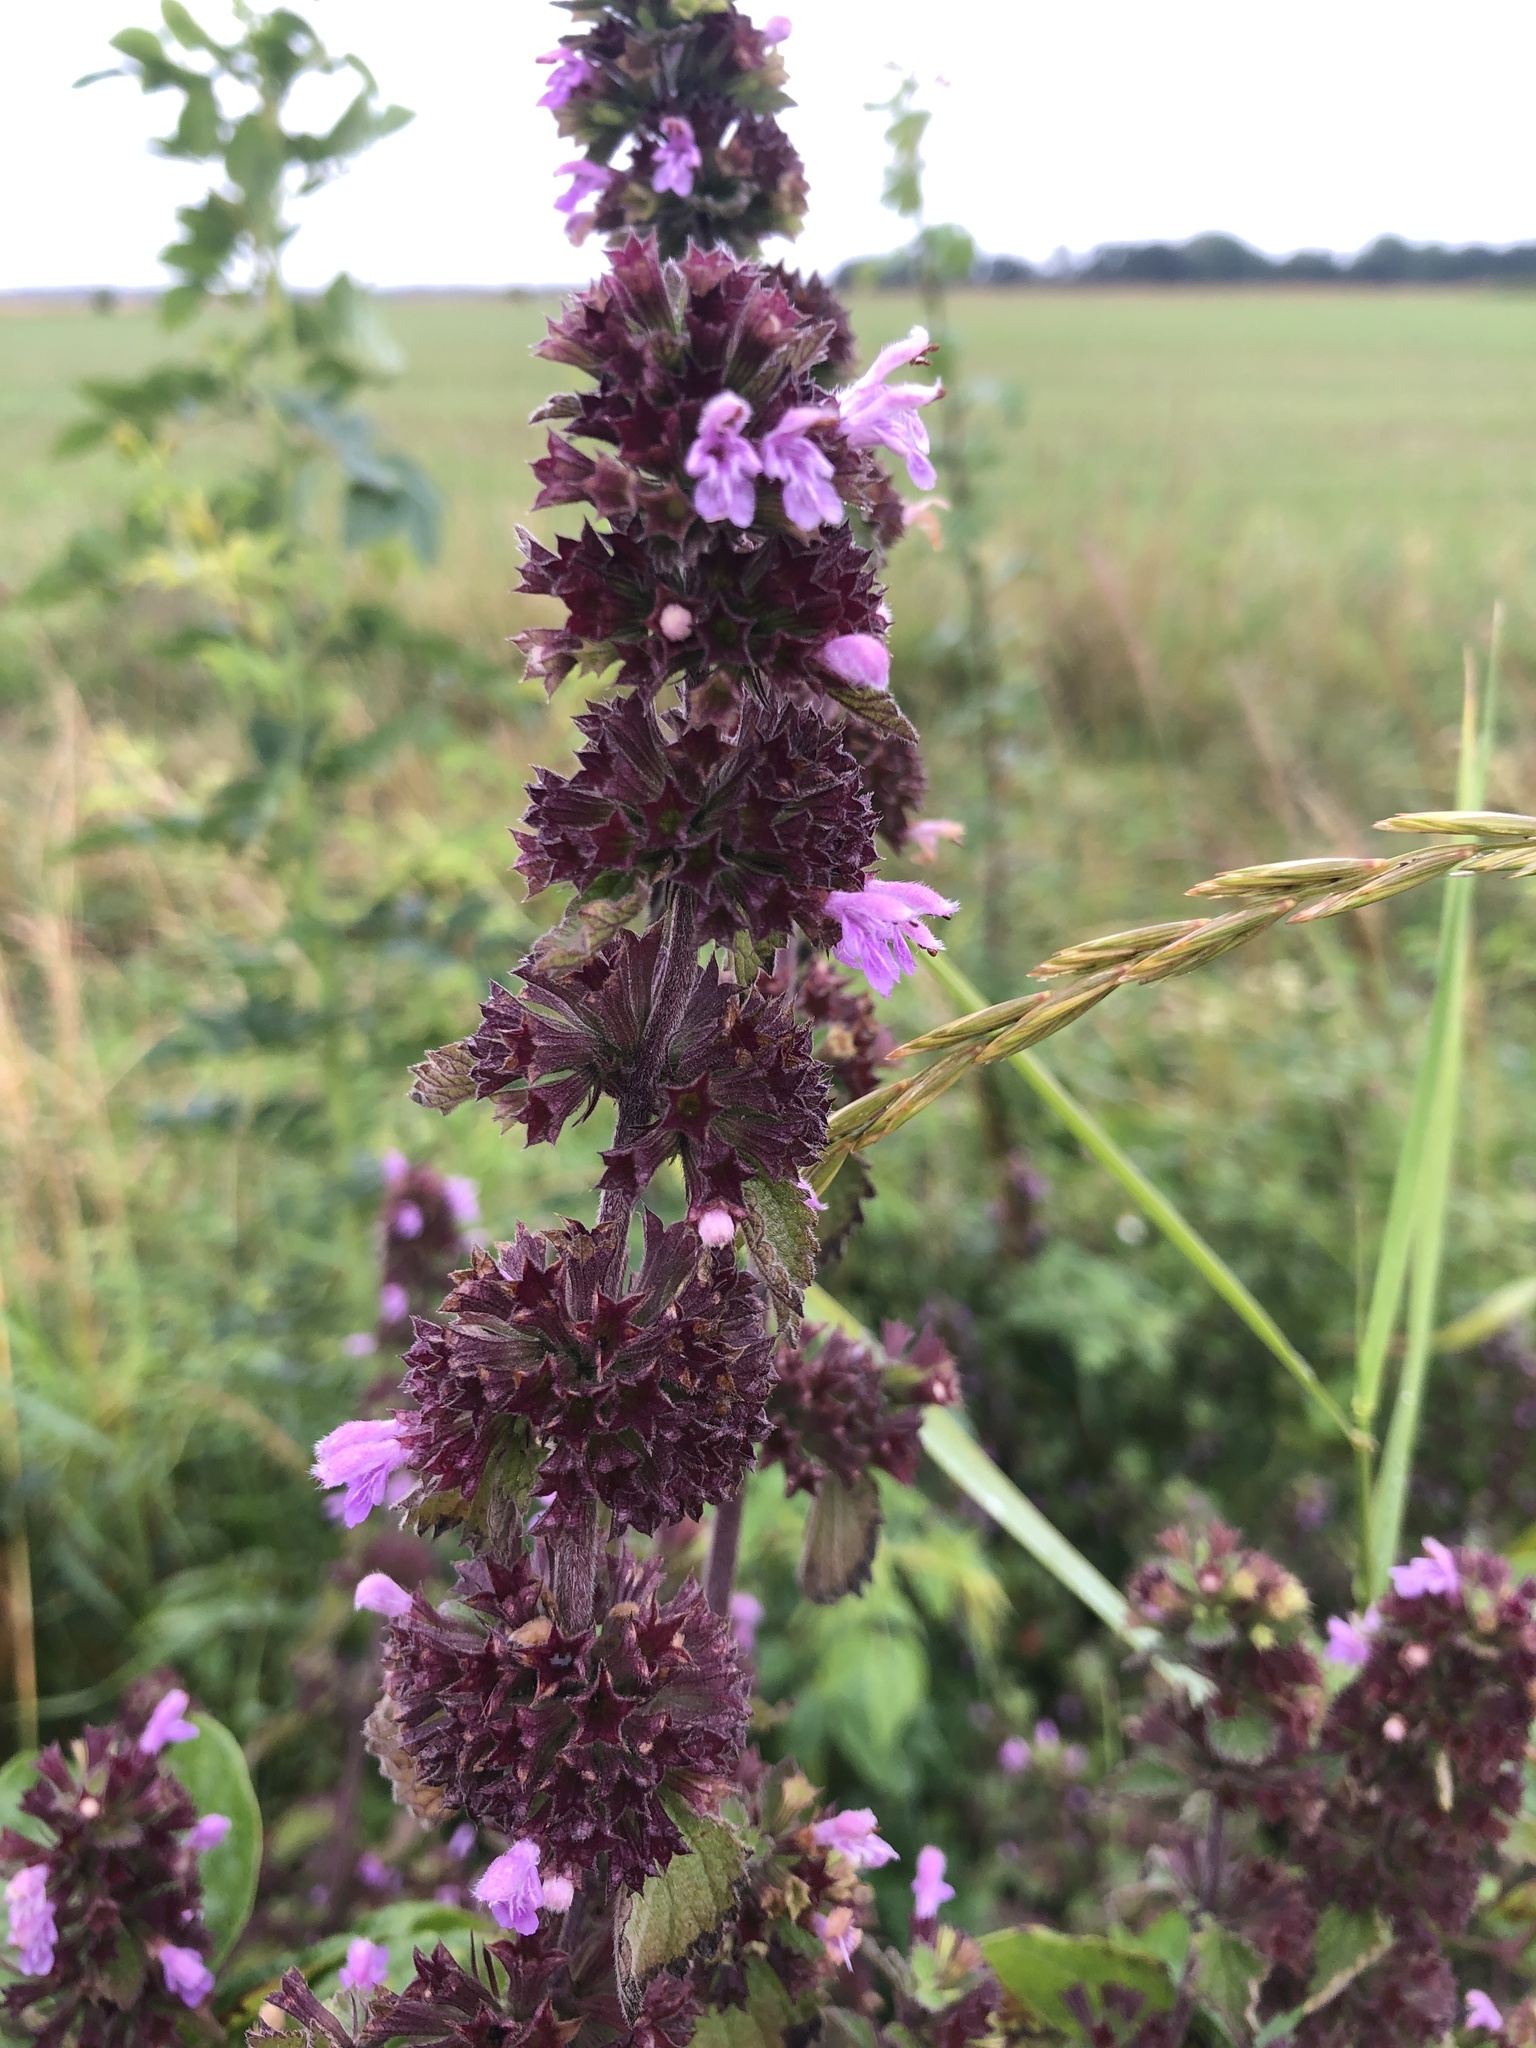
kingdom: Plantae
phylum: Tracheophyta
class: Magnoliopsida
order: Lamiales
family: Lamiaceae
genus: Ballota
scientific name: Ballota nigra
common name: Black horehound
